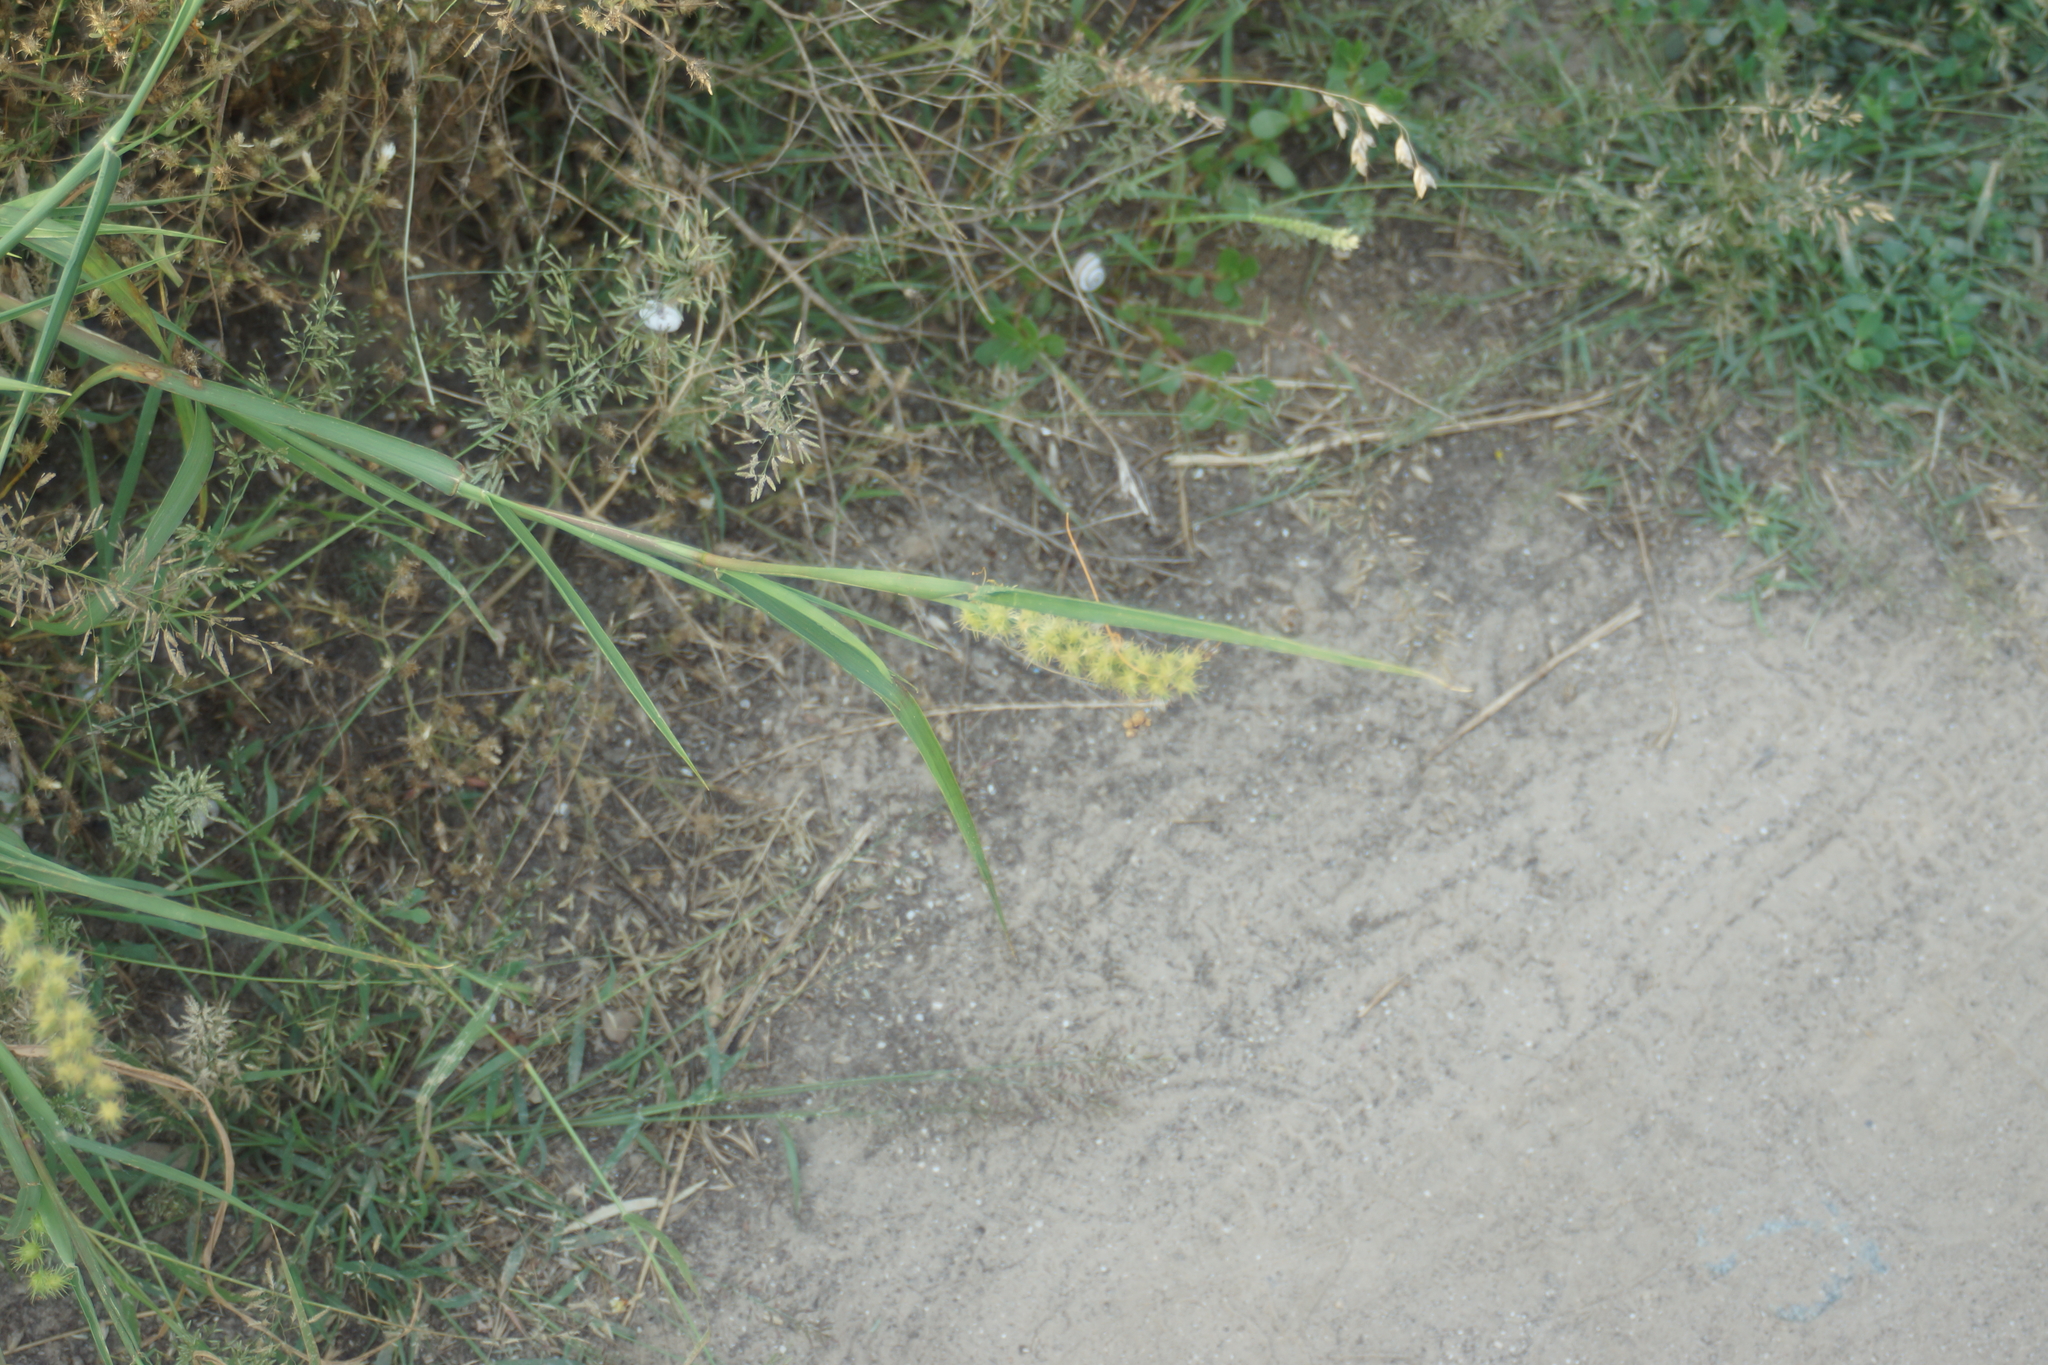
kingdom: Plantae
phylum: Tracheophyta
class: Liliopsida
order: Poales
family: Poaceae
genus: Cenchrus
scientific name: Cenchrus longispinus
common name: Mat sandbur
